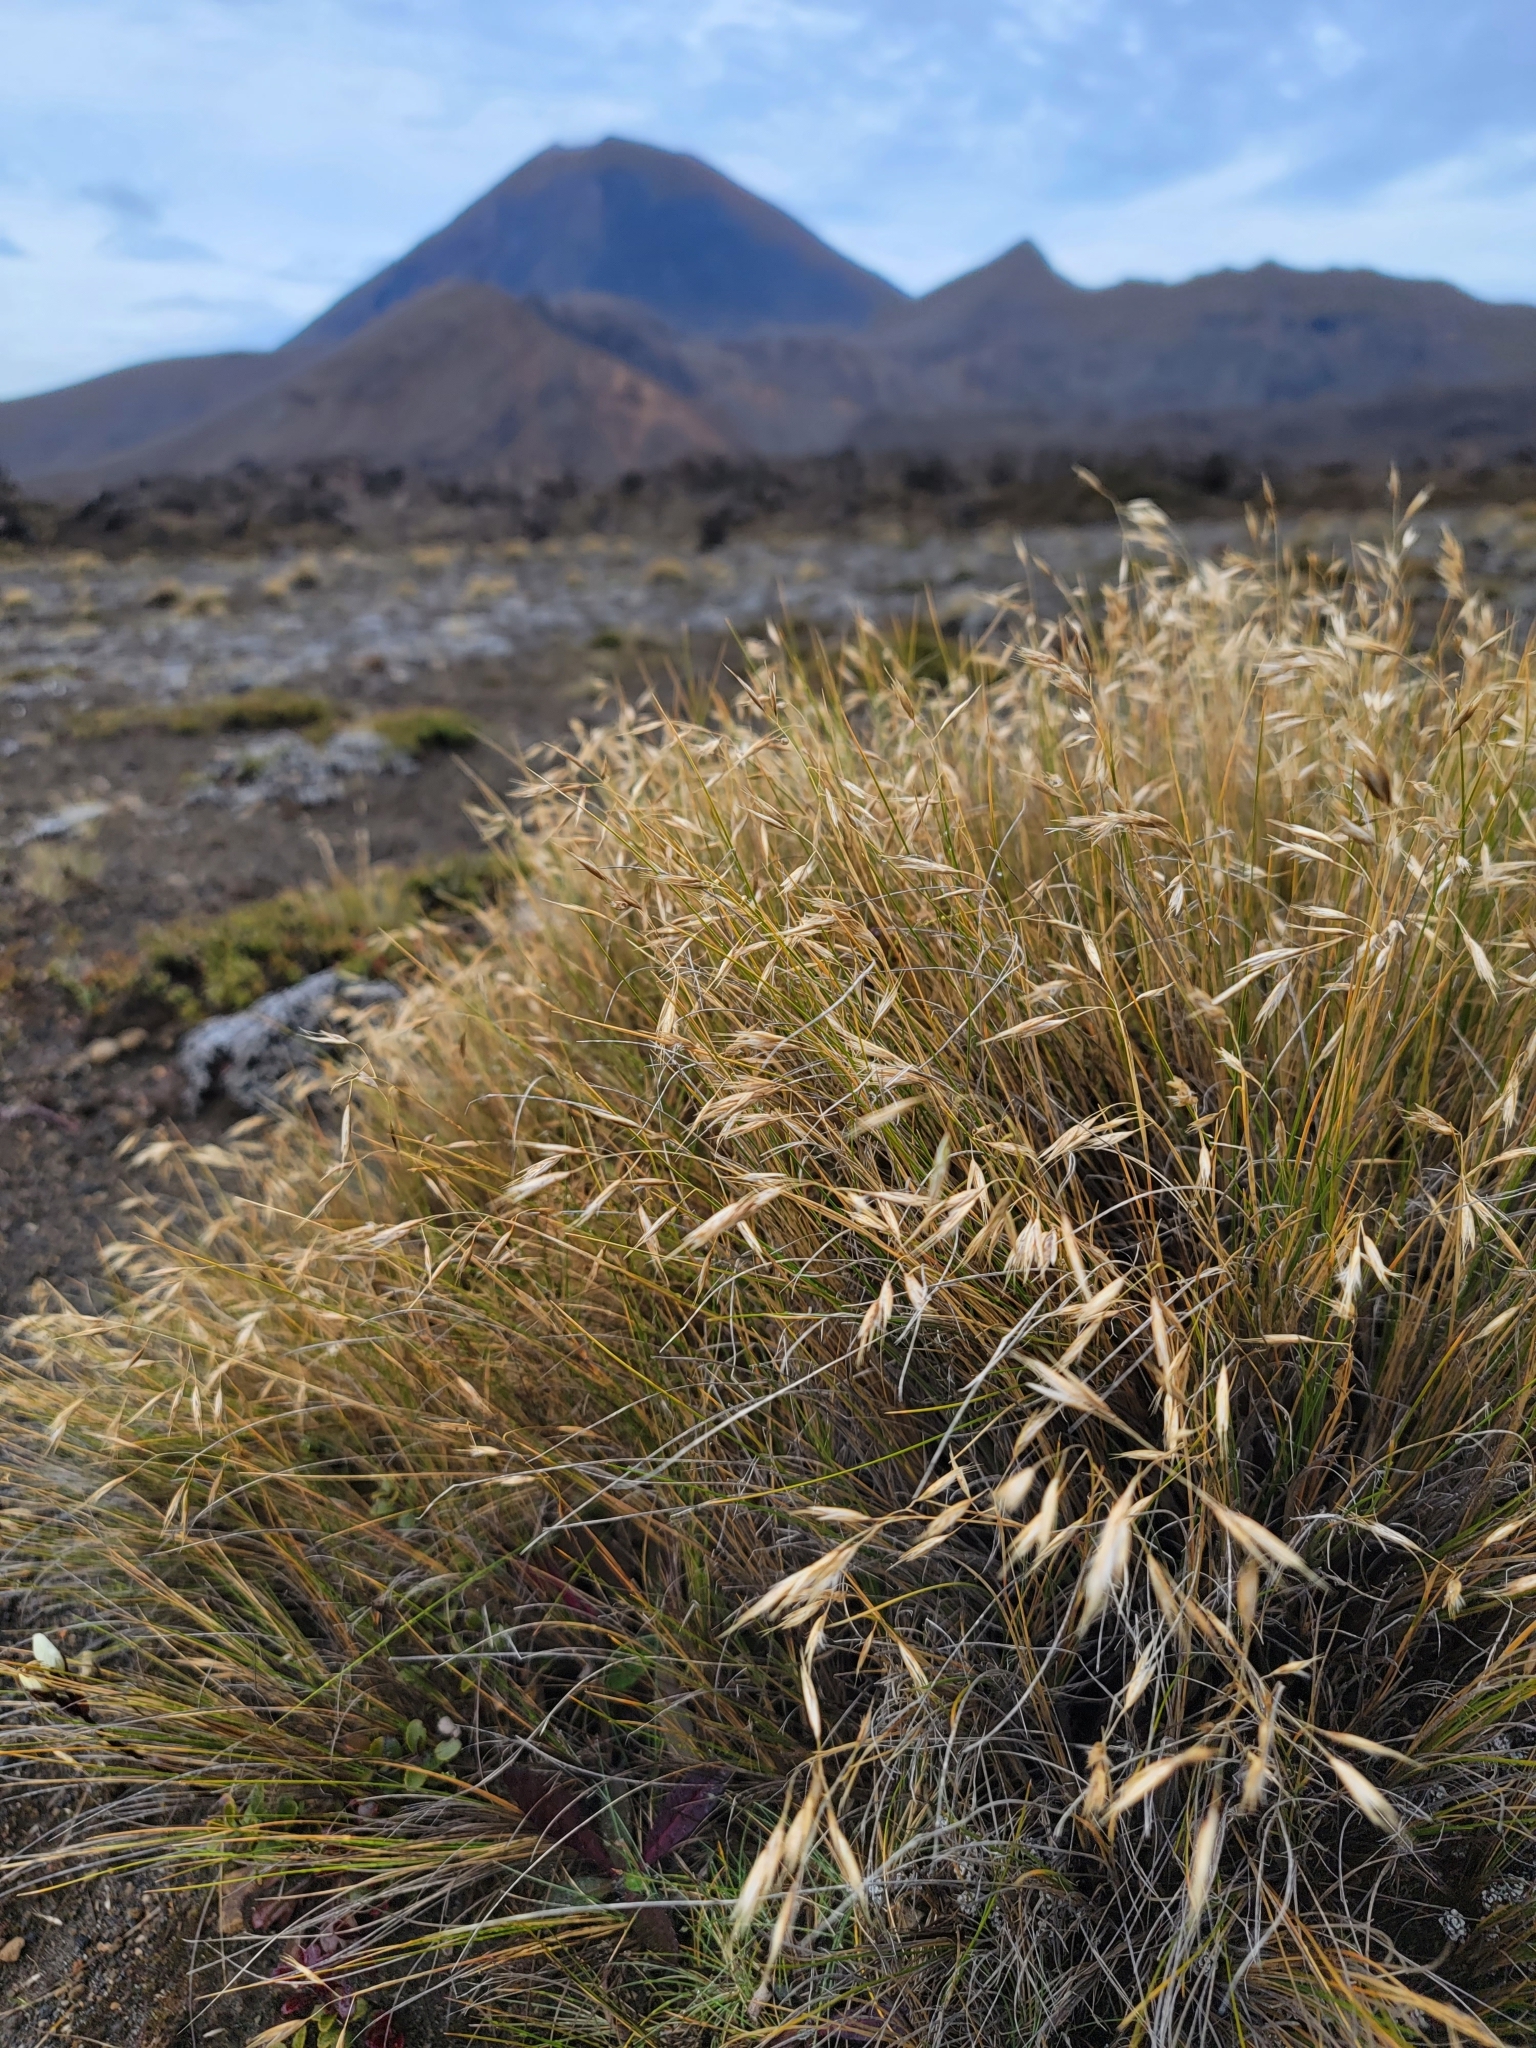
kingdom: Plantae
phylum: Tracheophyta
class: Liliopsida
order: Poales
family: Poaceae
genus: Rytidosperma
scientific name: Rytidosperma setifolium
